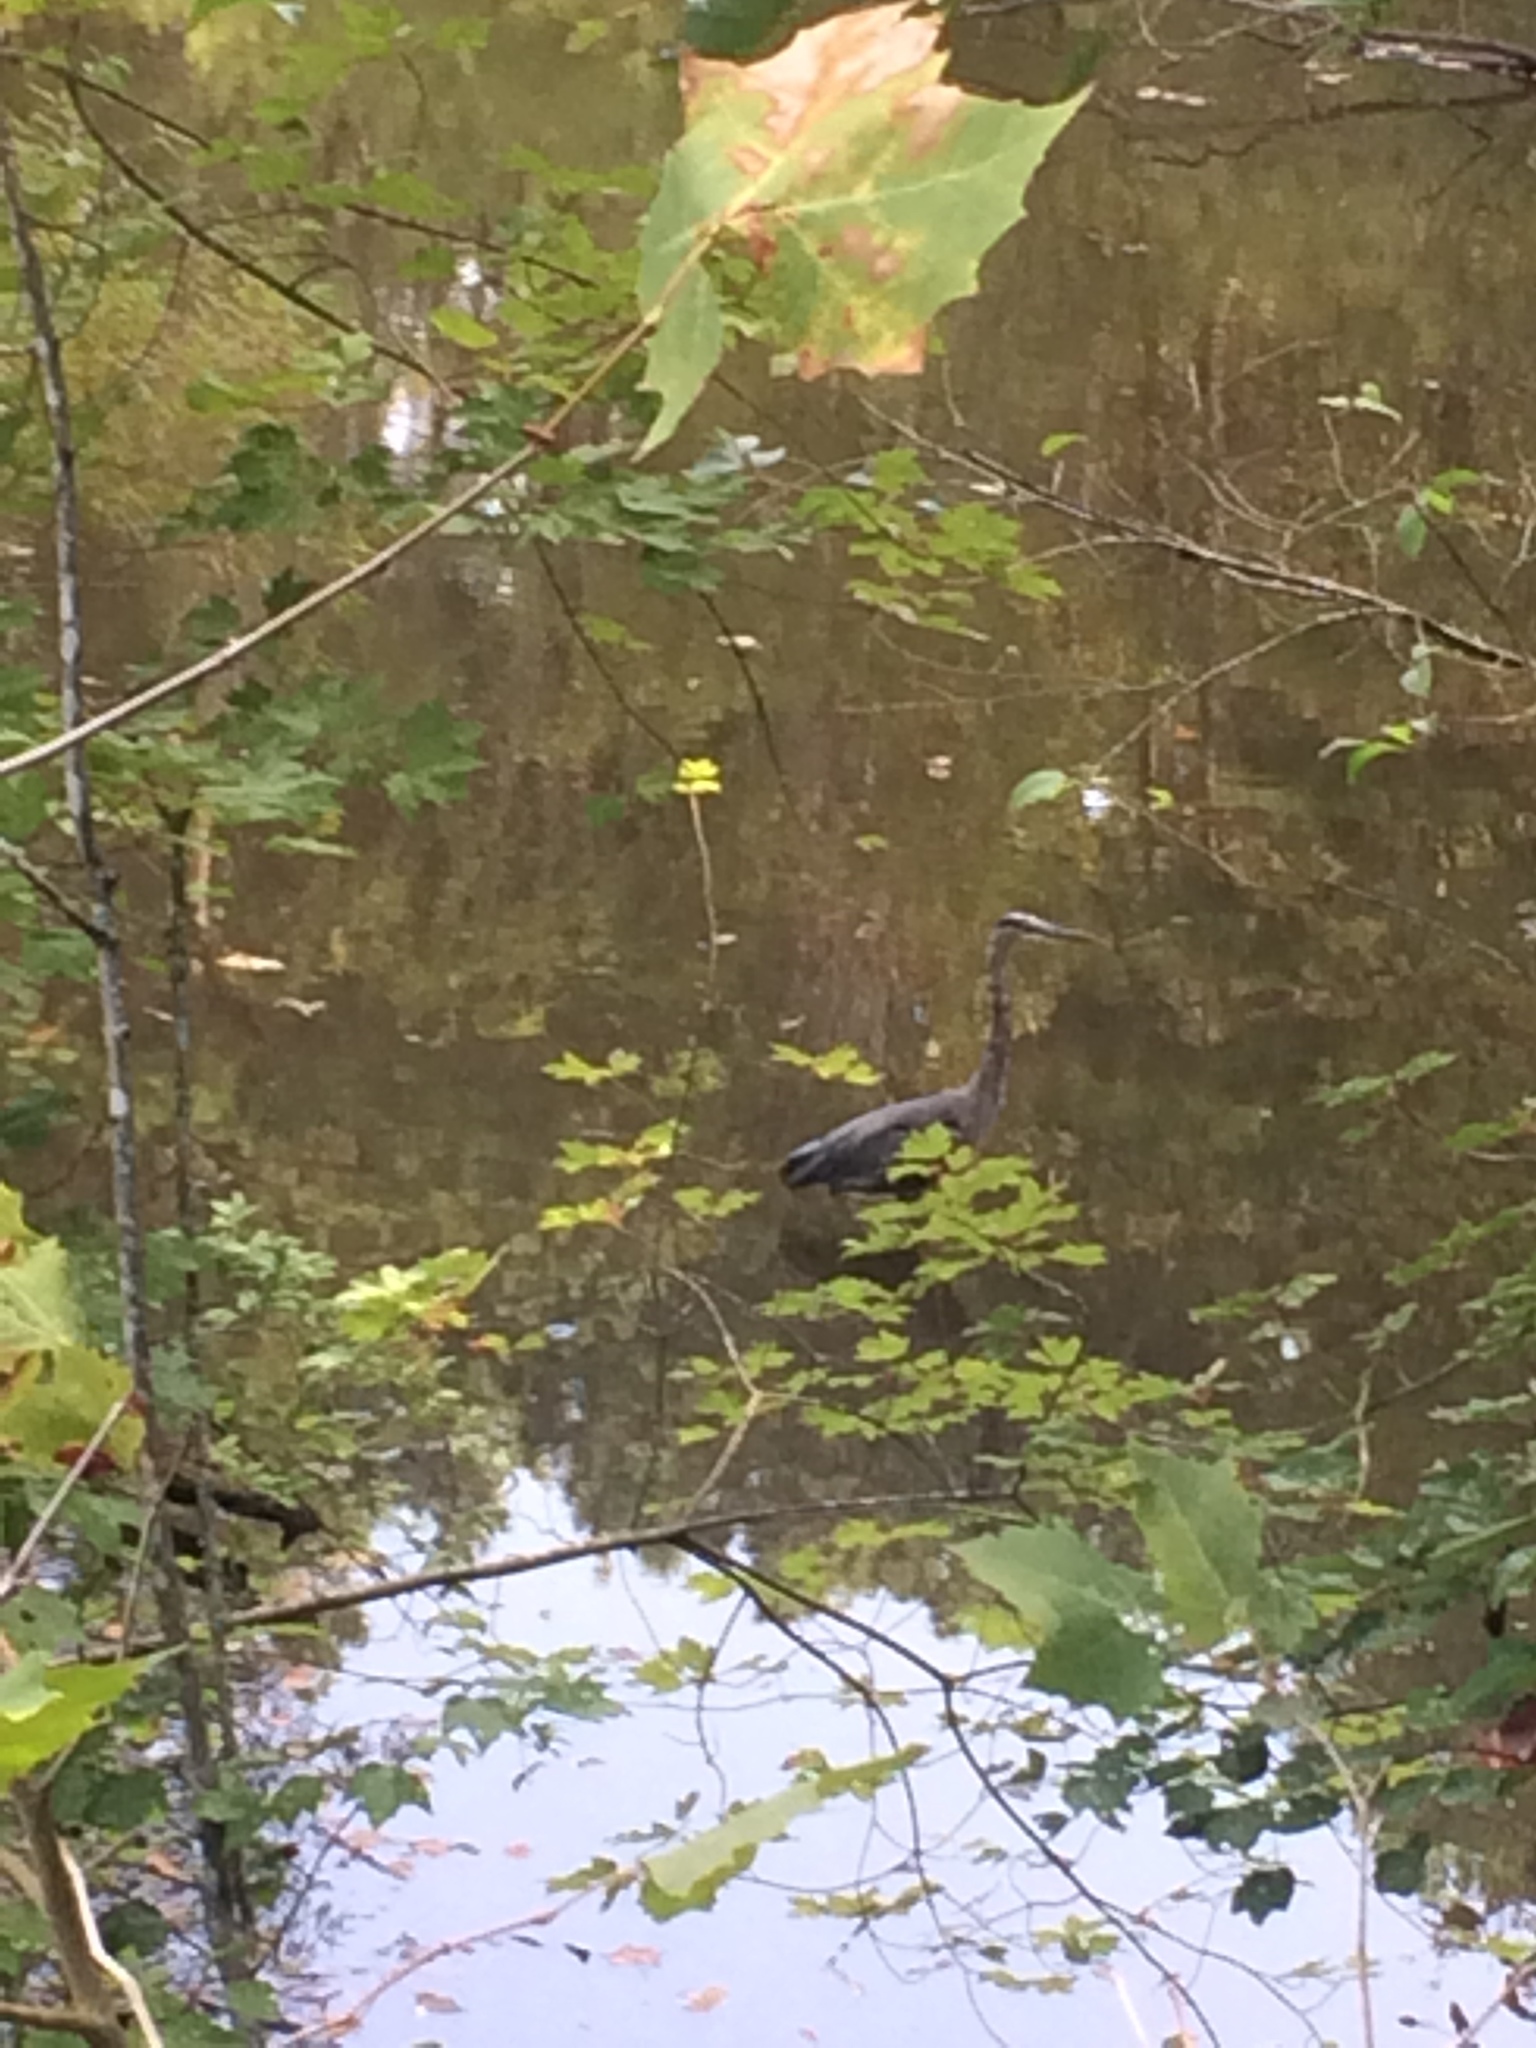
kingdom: Animalia
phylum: Chordata
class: Aves
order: Pelecaniformes
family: Ardeidae
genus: Ardea
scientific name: Ardea herodias
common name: Great blue heron
